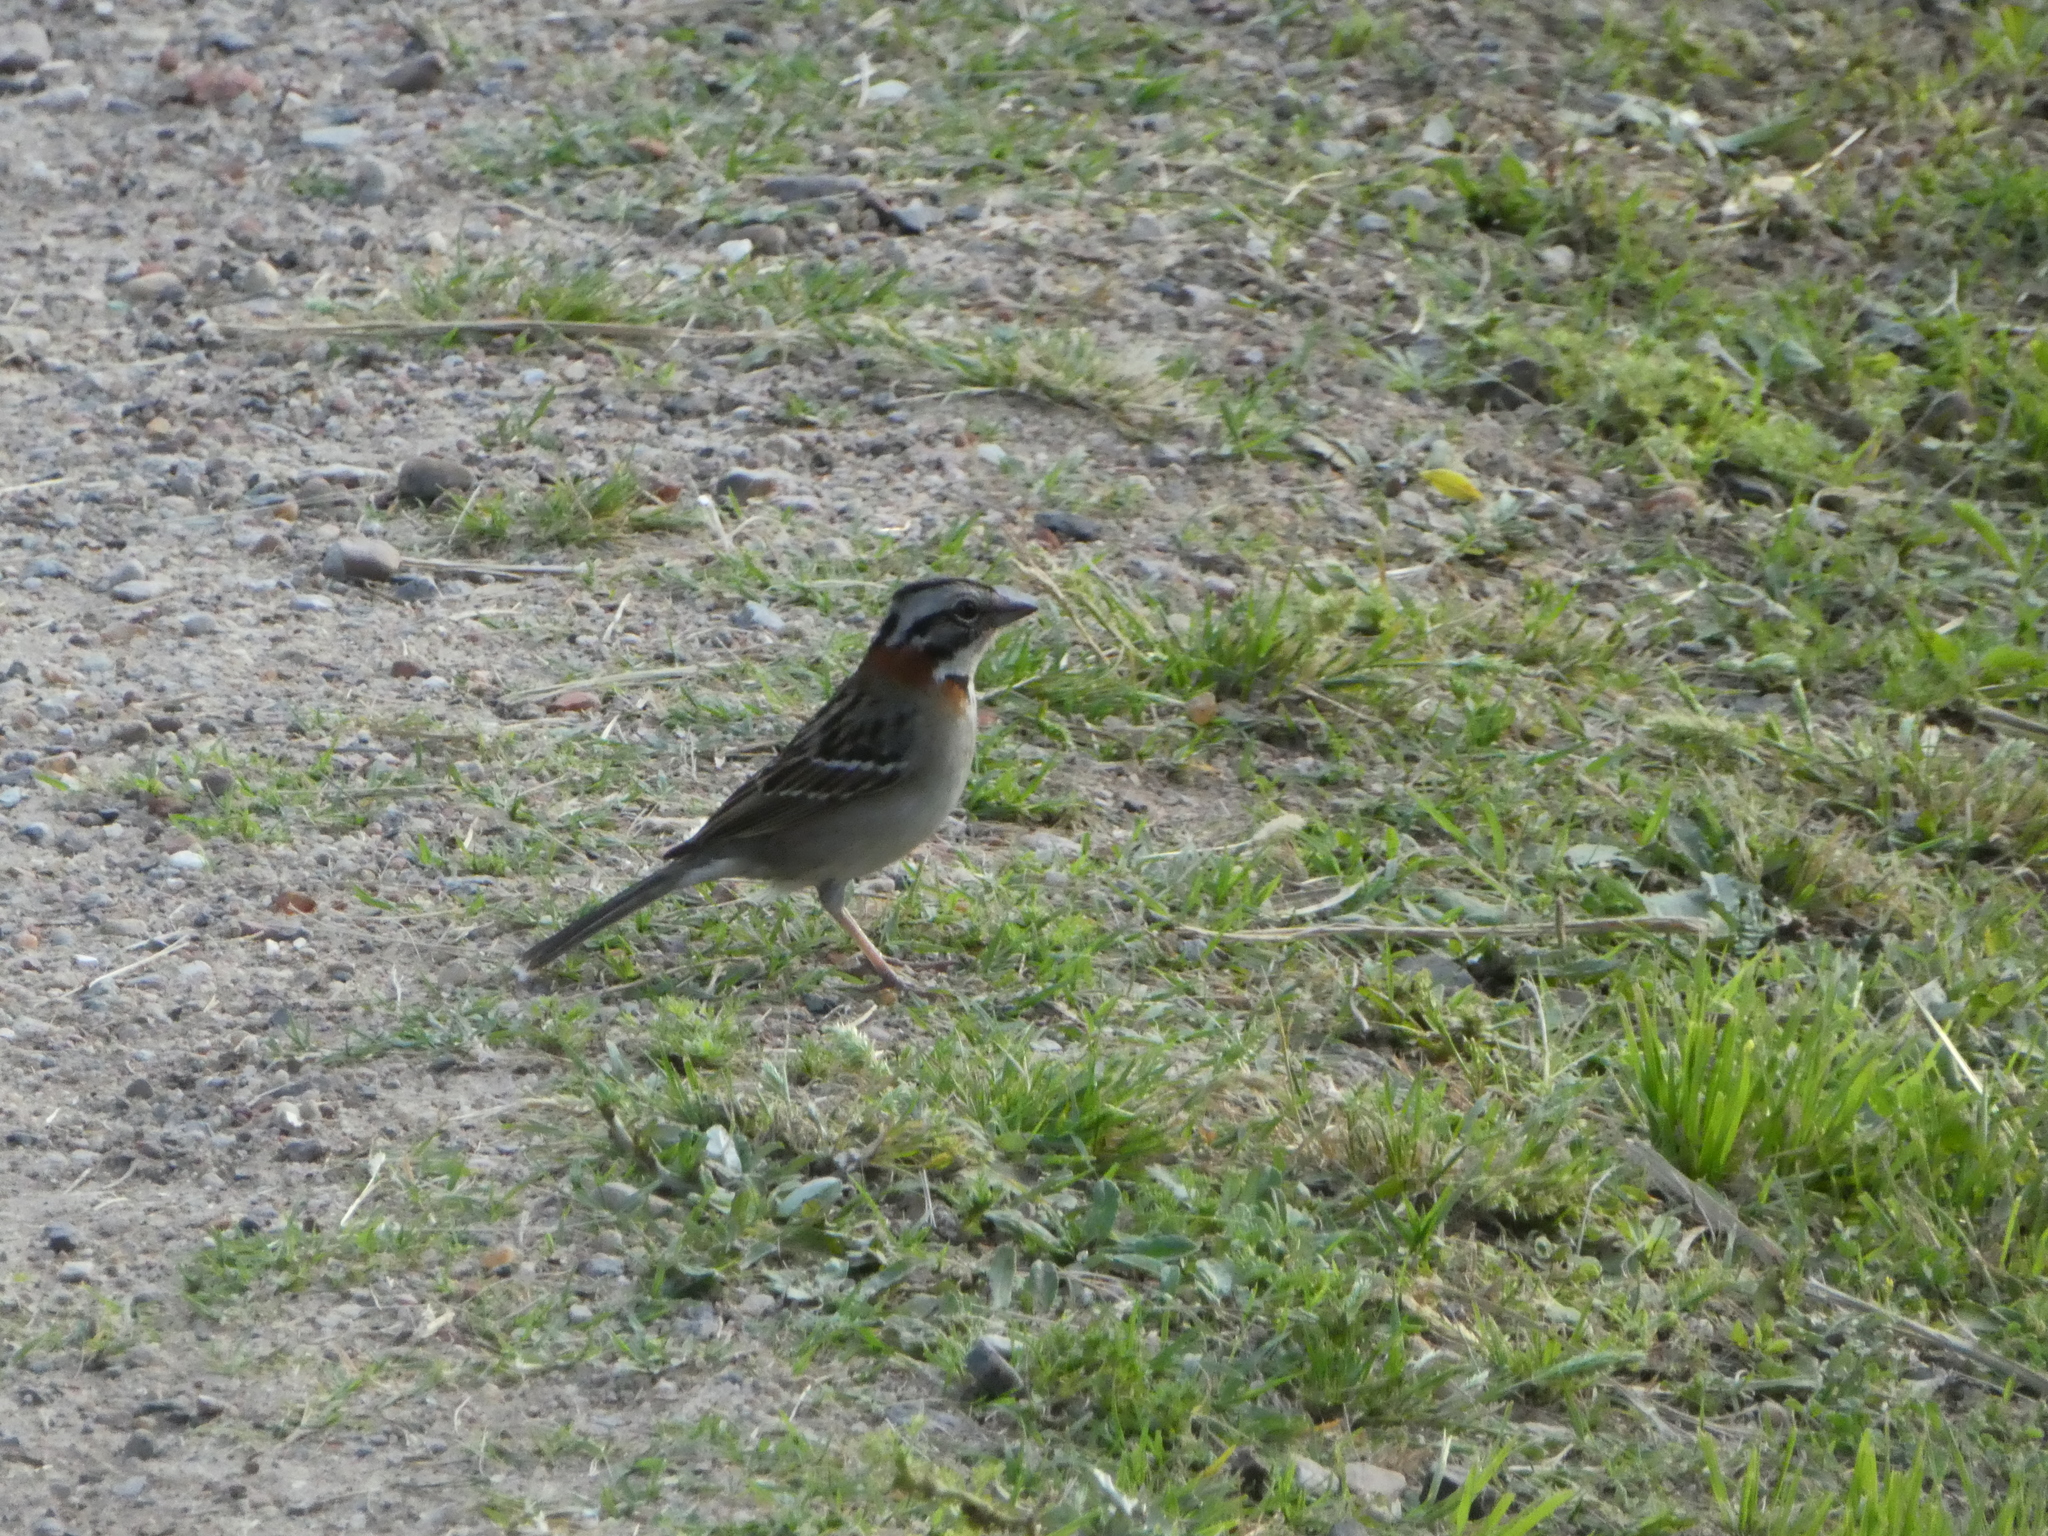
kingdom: Animalia
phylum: Chordata
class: Aves
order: Passeriformes
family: Passerellidae
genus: Zonotrichia
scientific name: Zonotrichia capensis
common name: Rufous-collared sparrow
